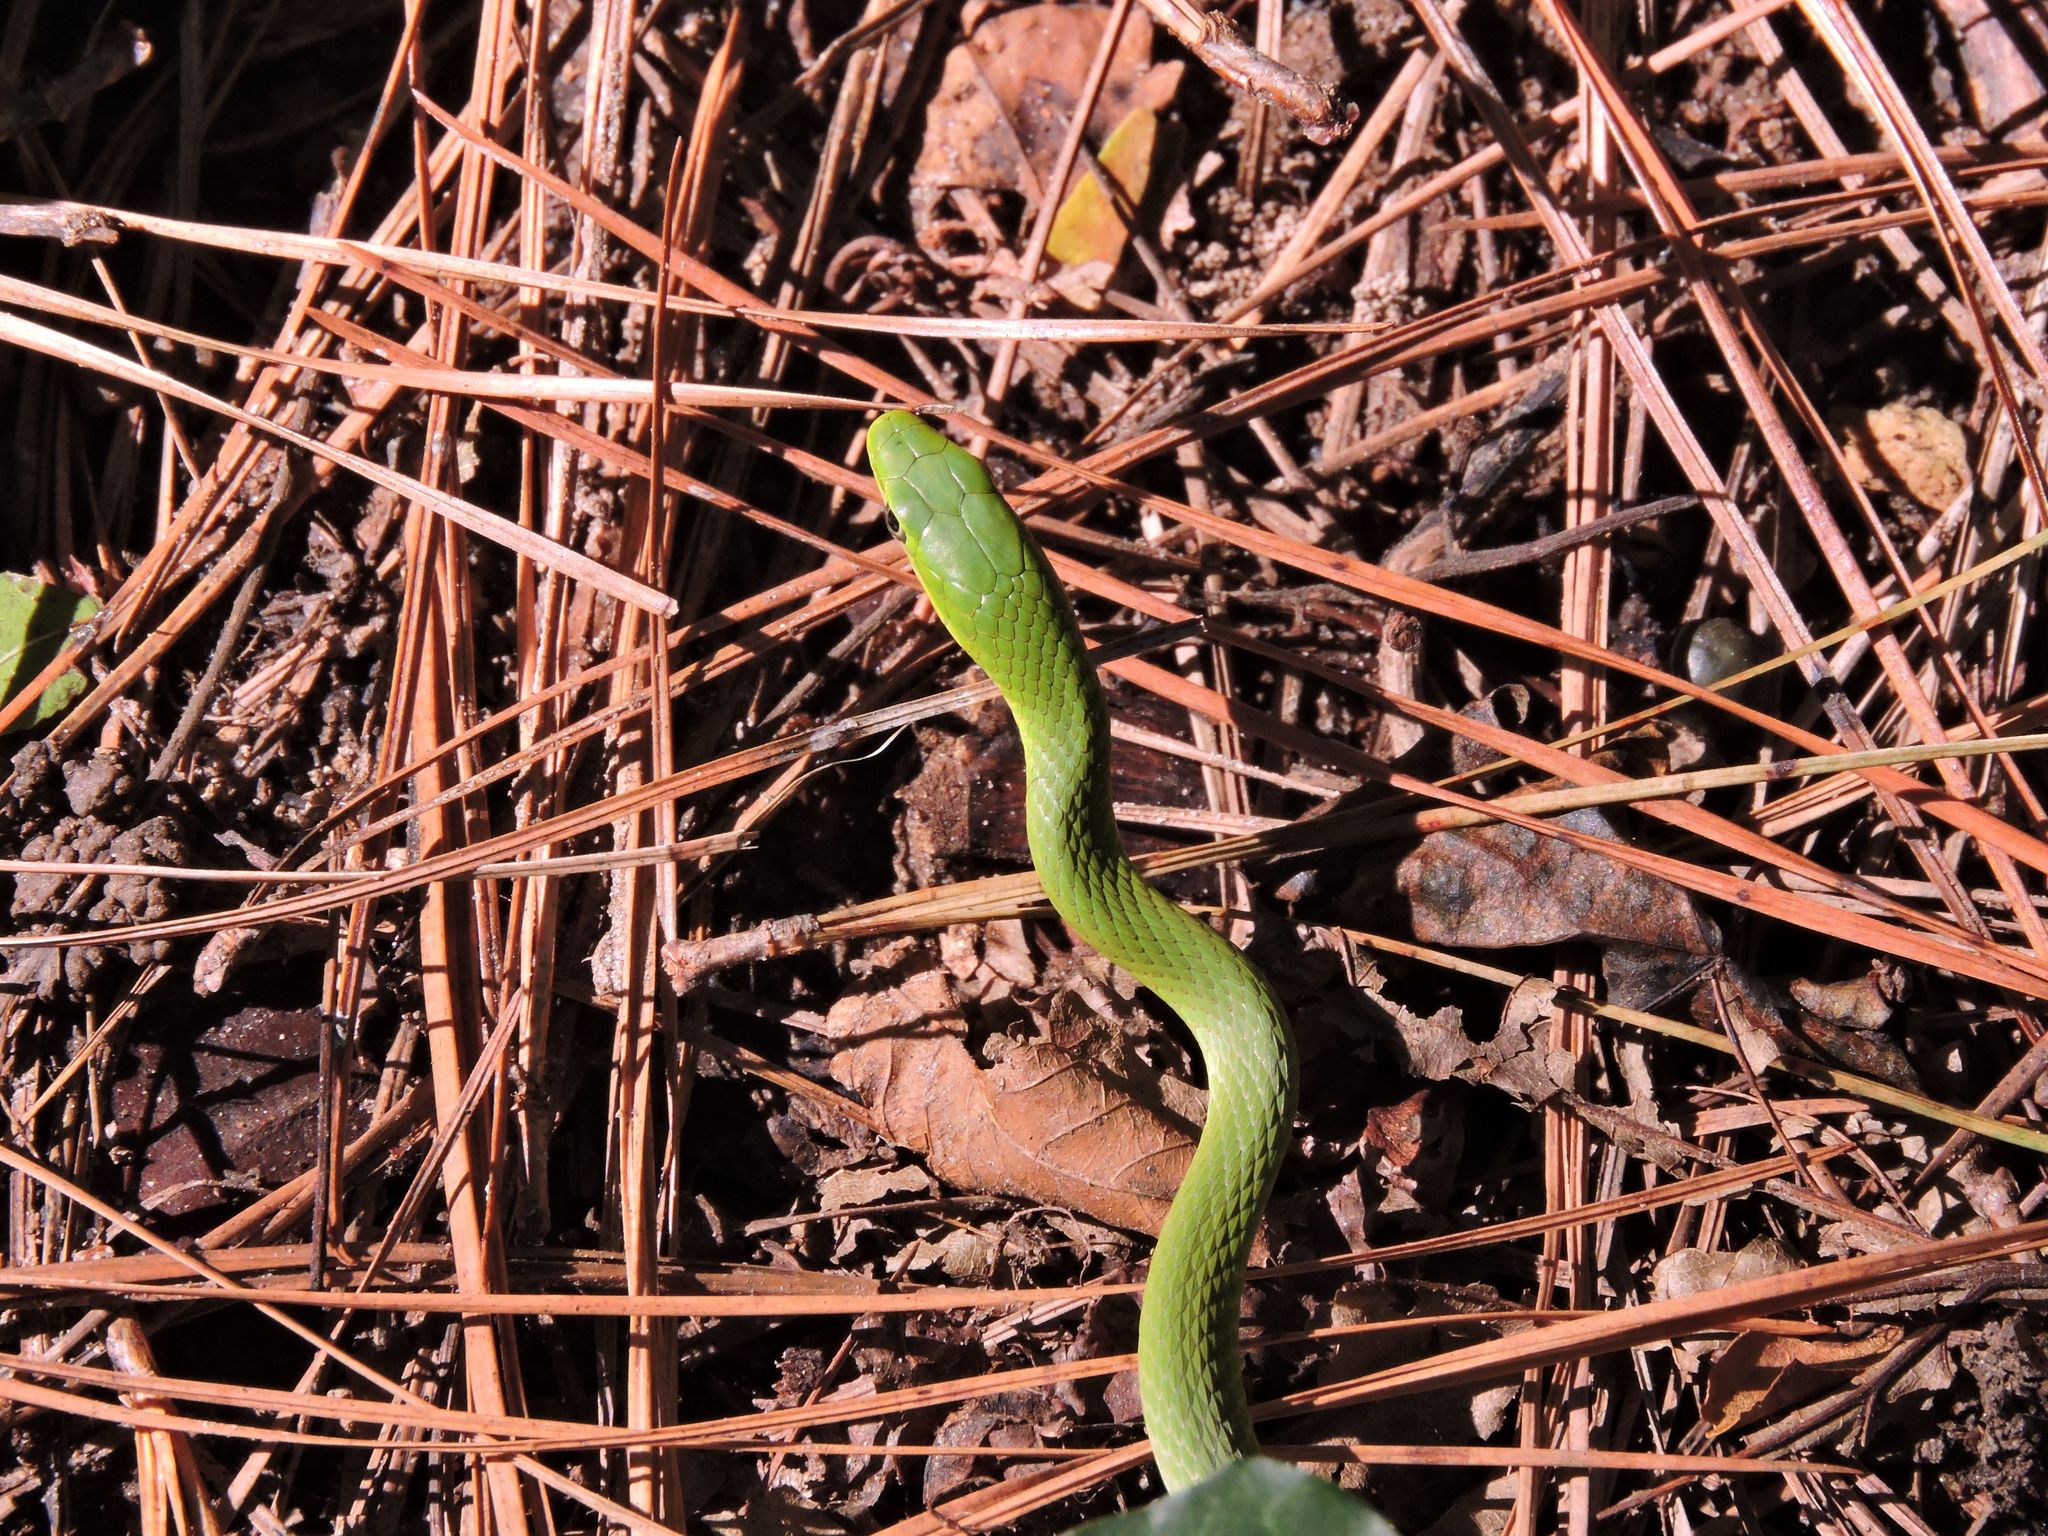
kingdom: Animalia
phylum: Chordata
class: Squamata
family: Colubridae
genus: Opheodrys
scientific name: Opheodrys aestivus
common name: Rough greensnake
